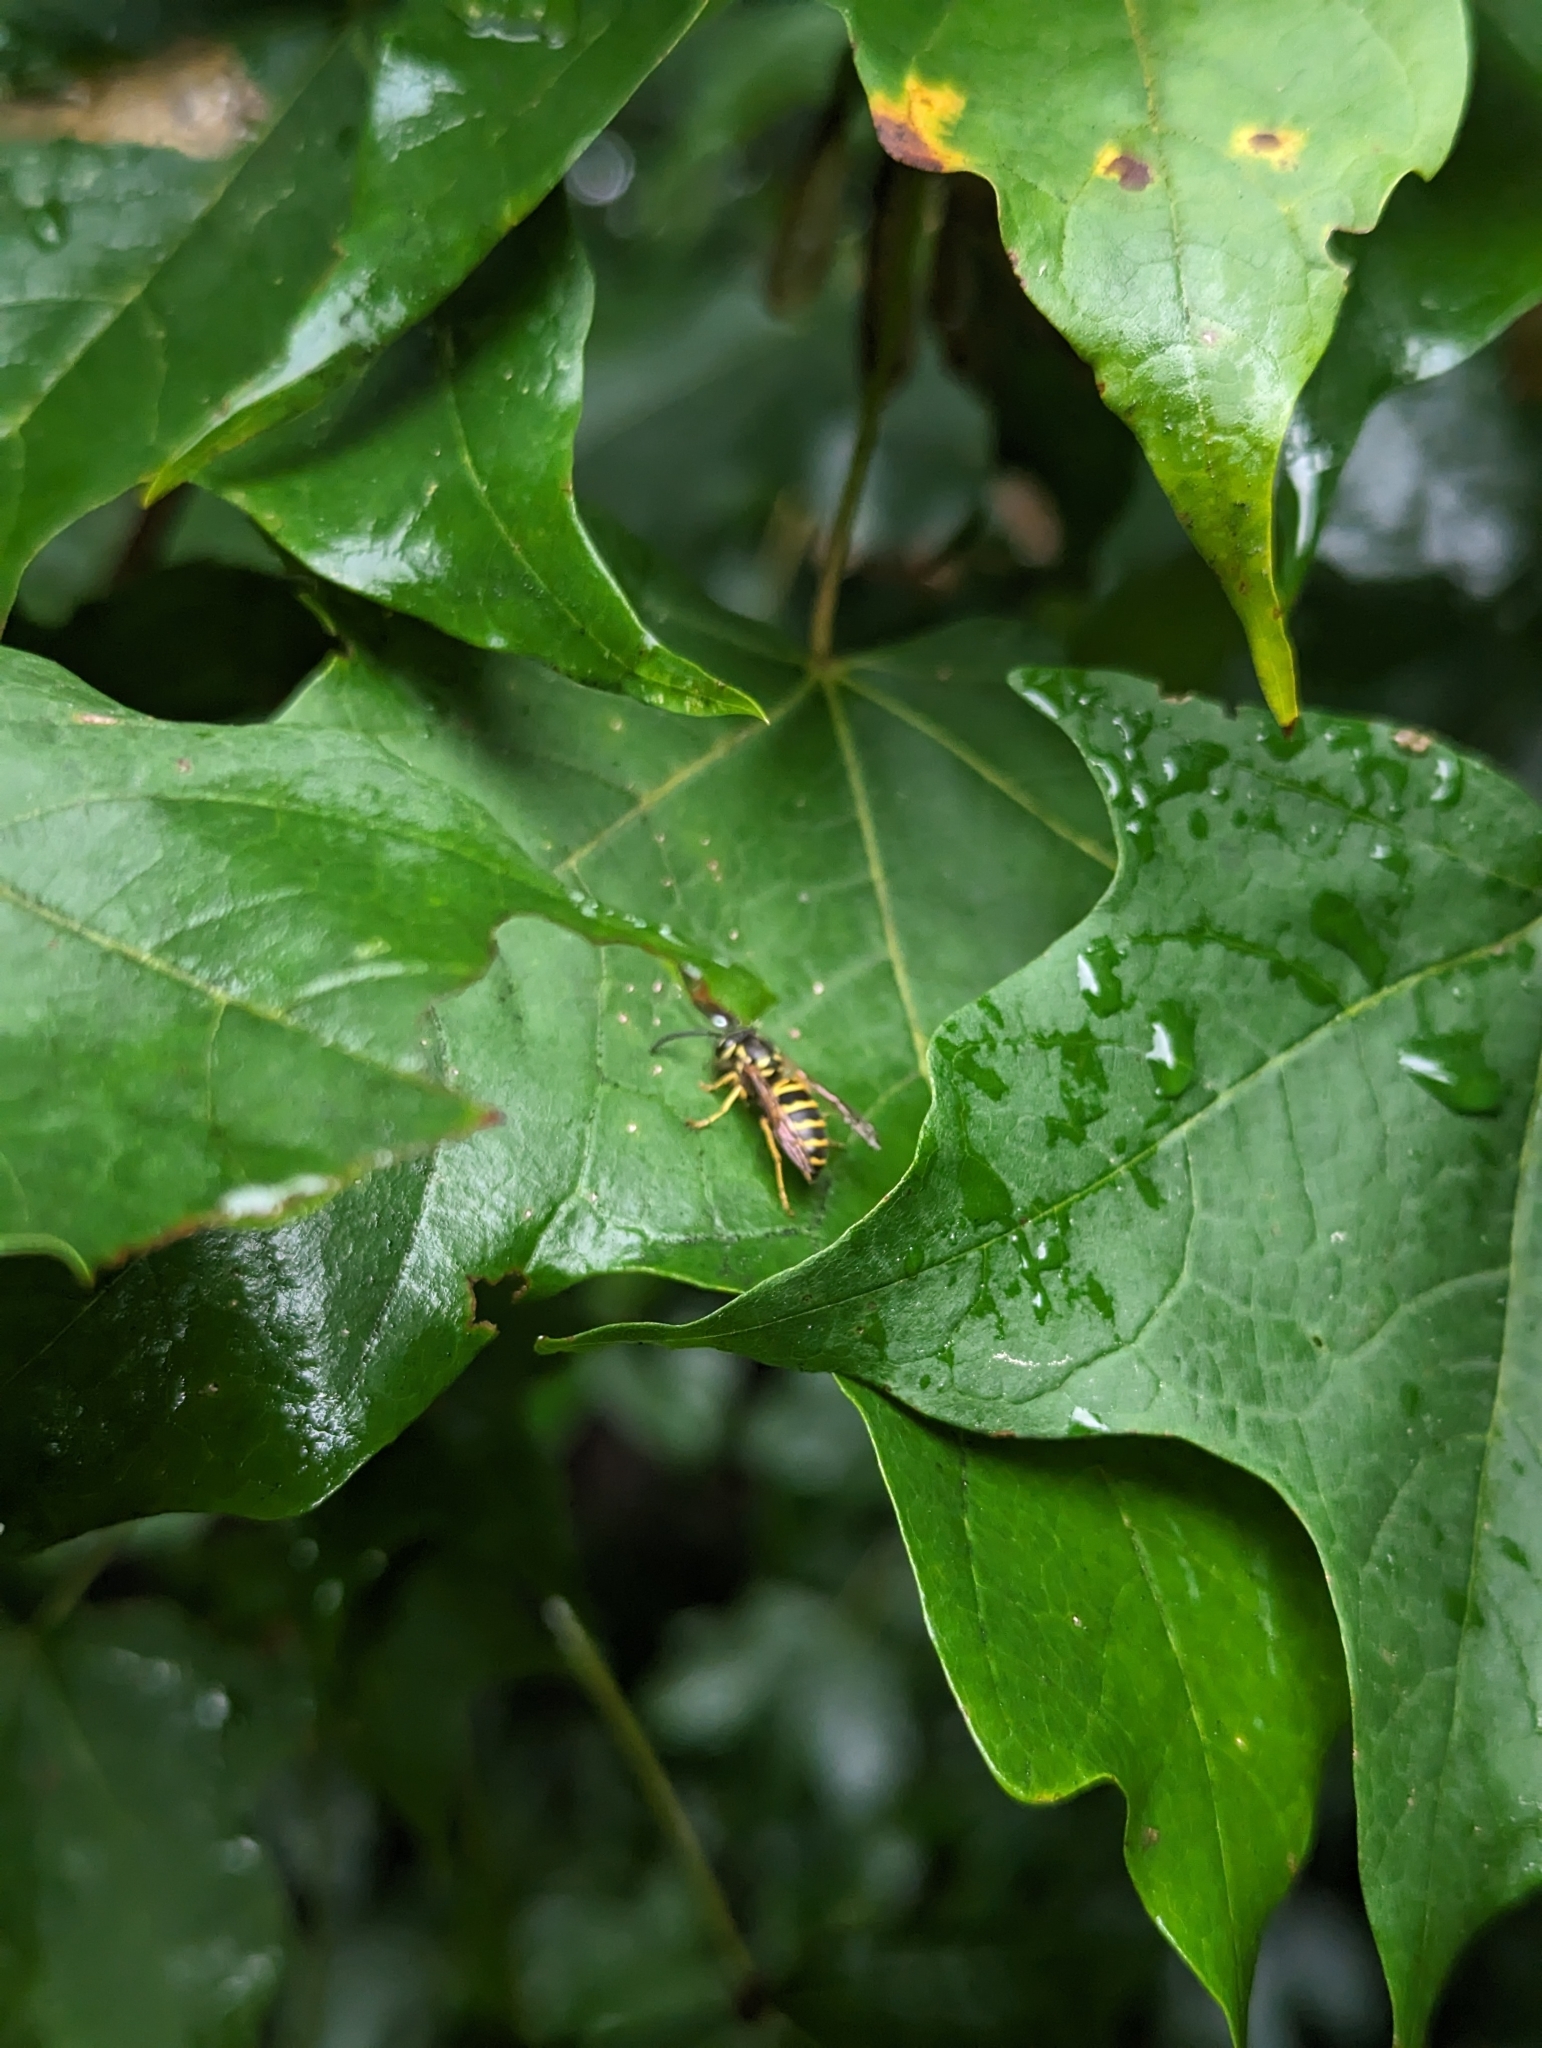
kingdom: Animalia
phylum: Arthropoda
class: Insecta
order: Hymenoptera
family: Vespidae
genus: Vespula
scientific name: Vespula maculifrons
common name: Eastern yellowjacket
